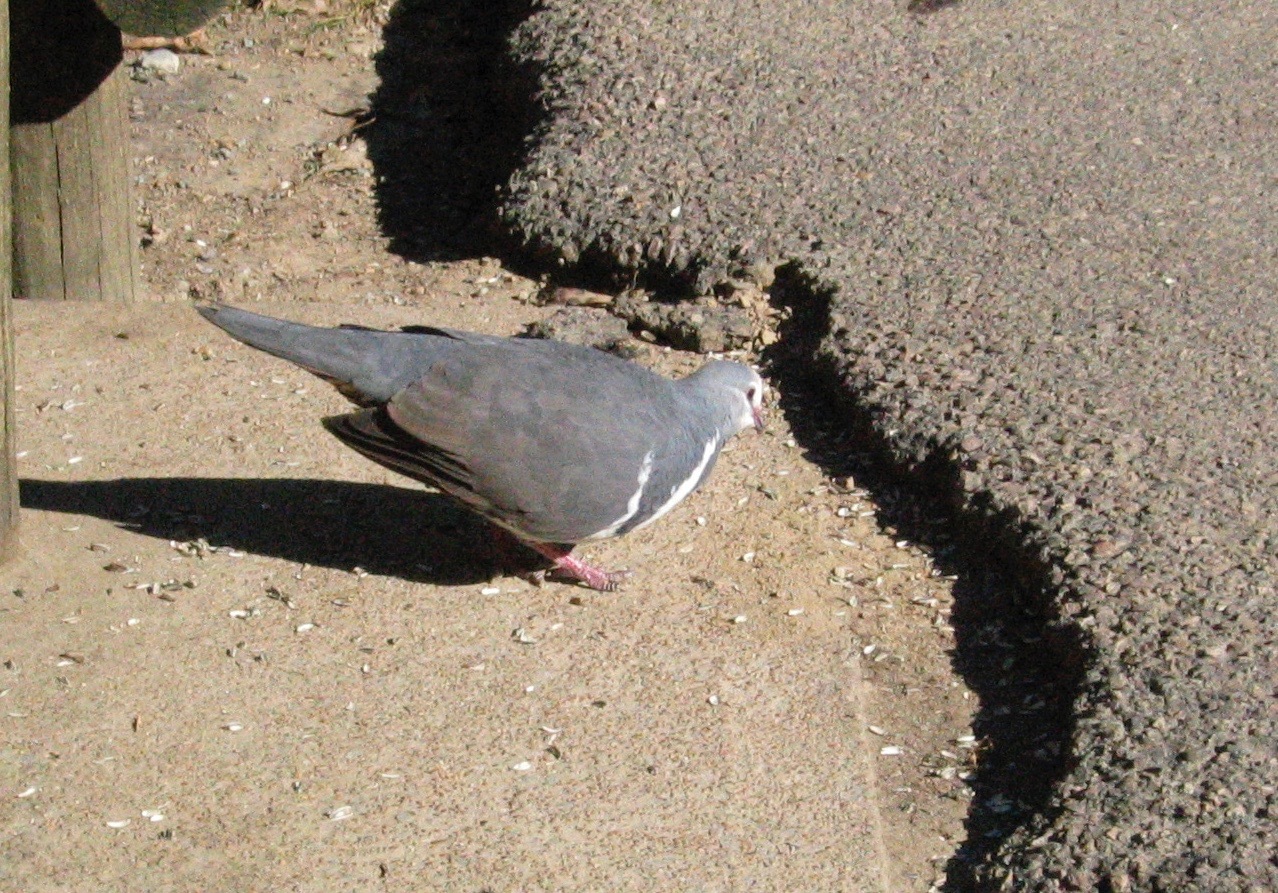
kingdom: Animalia
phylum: Chordata
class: Aves
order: Columbiformes
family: Columbidae
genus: Leucosarcia
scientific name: Leucosarcia melanoleuca
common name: Wonga pigeon
